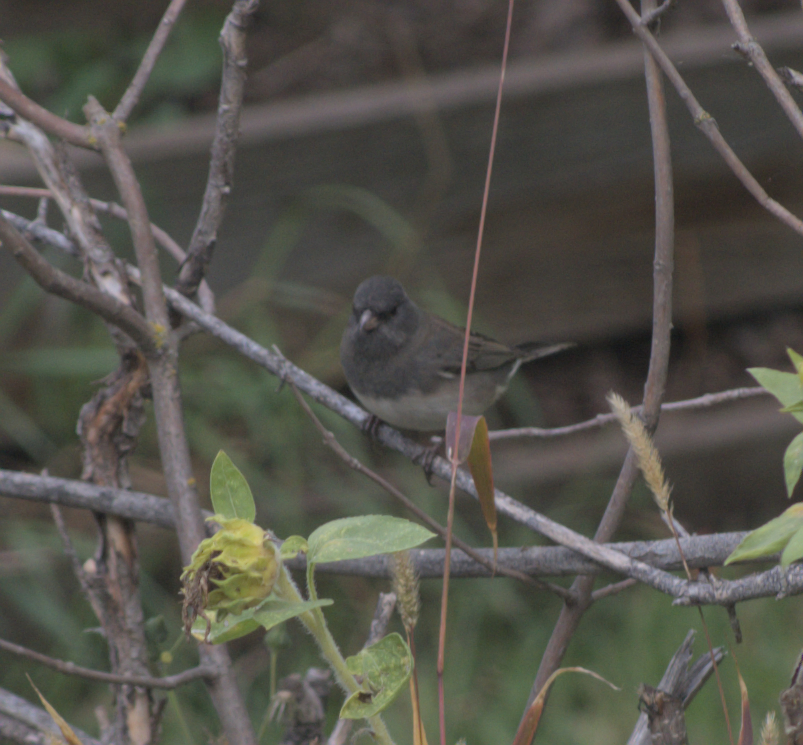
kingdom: Animalia
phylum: Chordata
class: Aves
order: Passeriformes
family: Passerellidae
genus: Junco
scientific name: Junco hyemalis
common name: Dark-eyed junco
